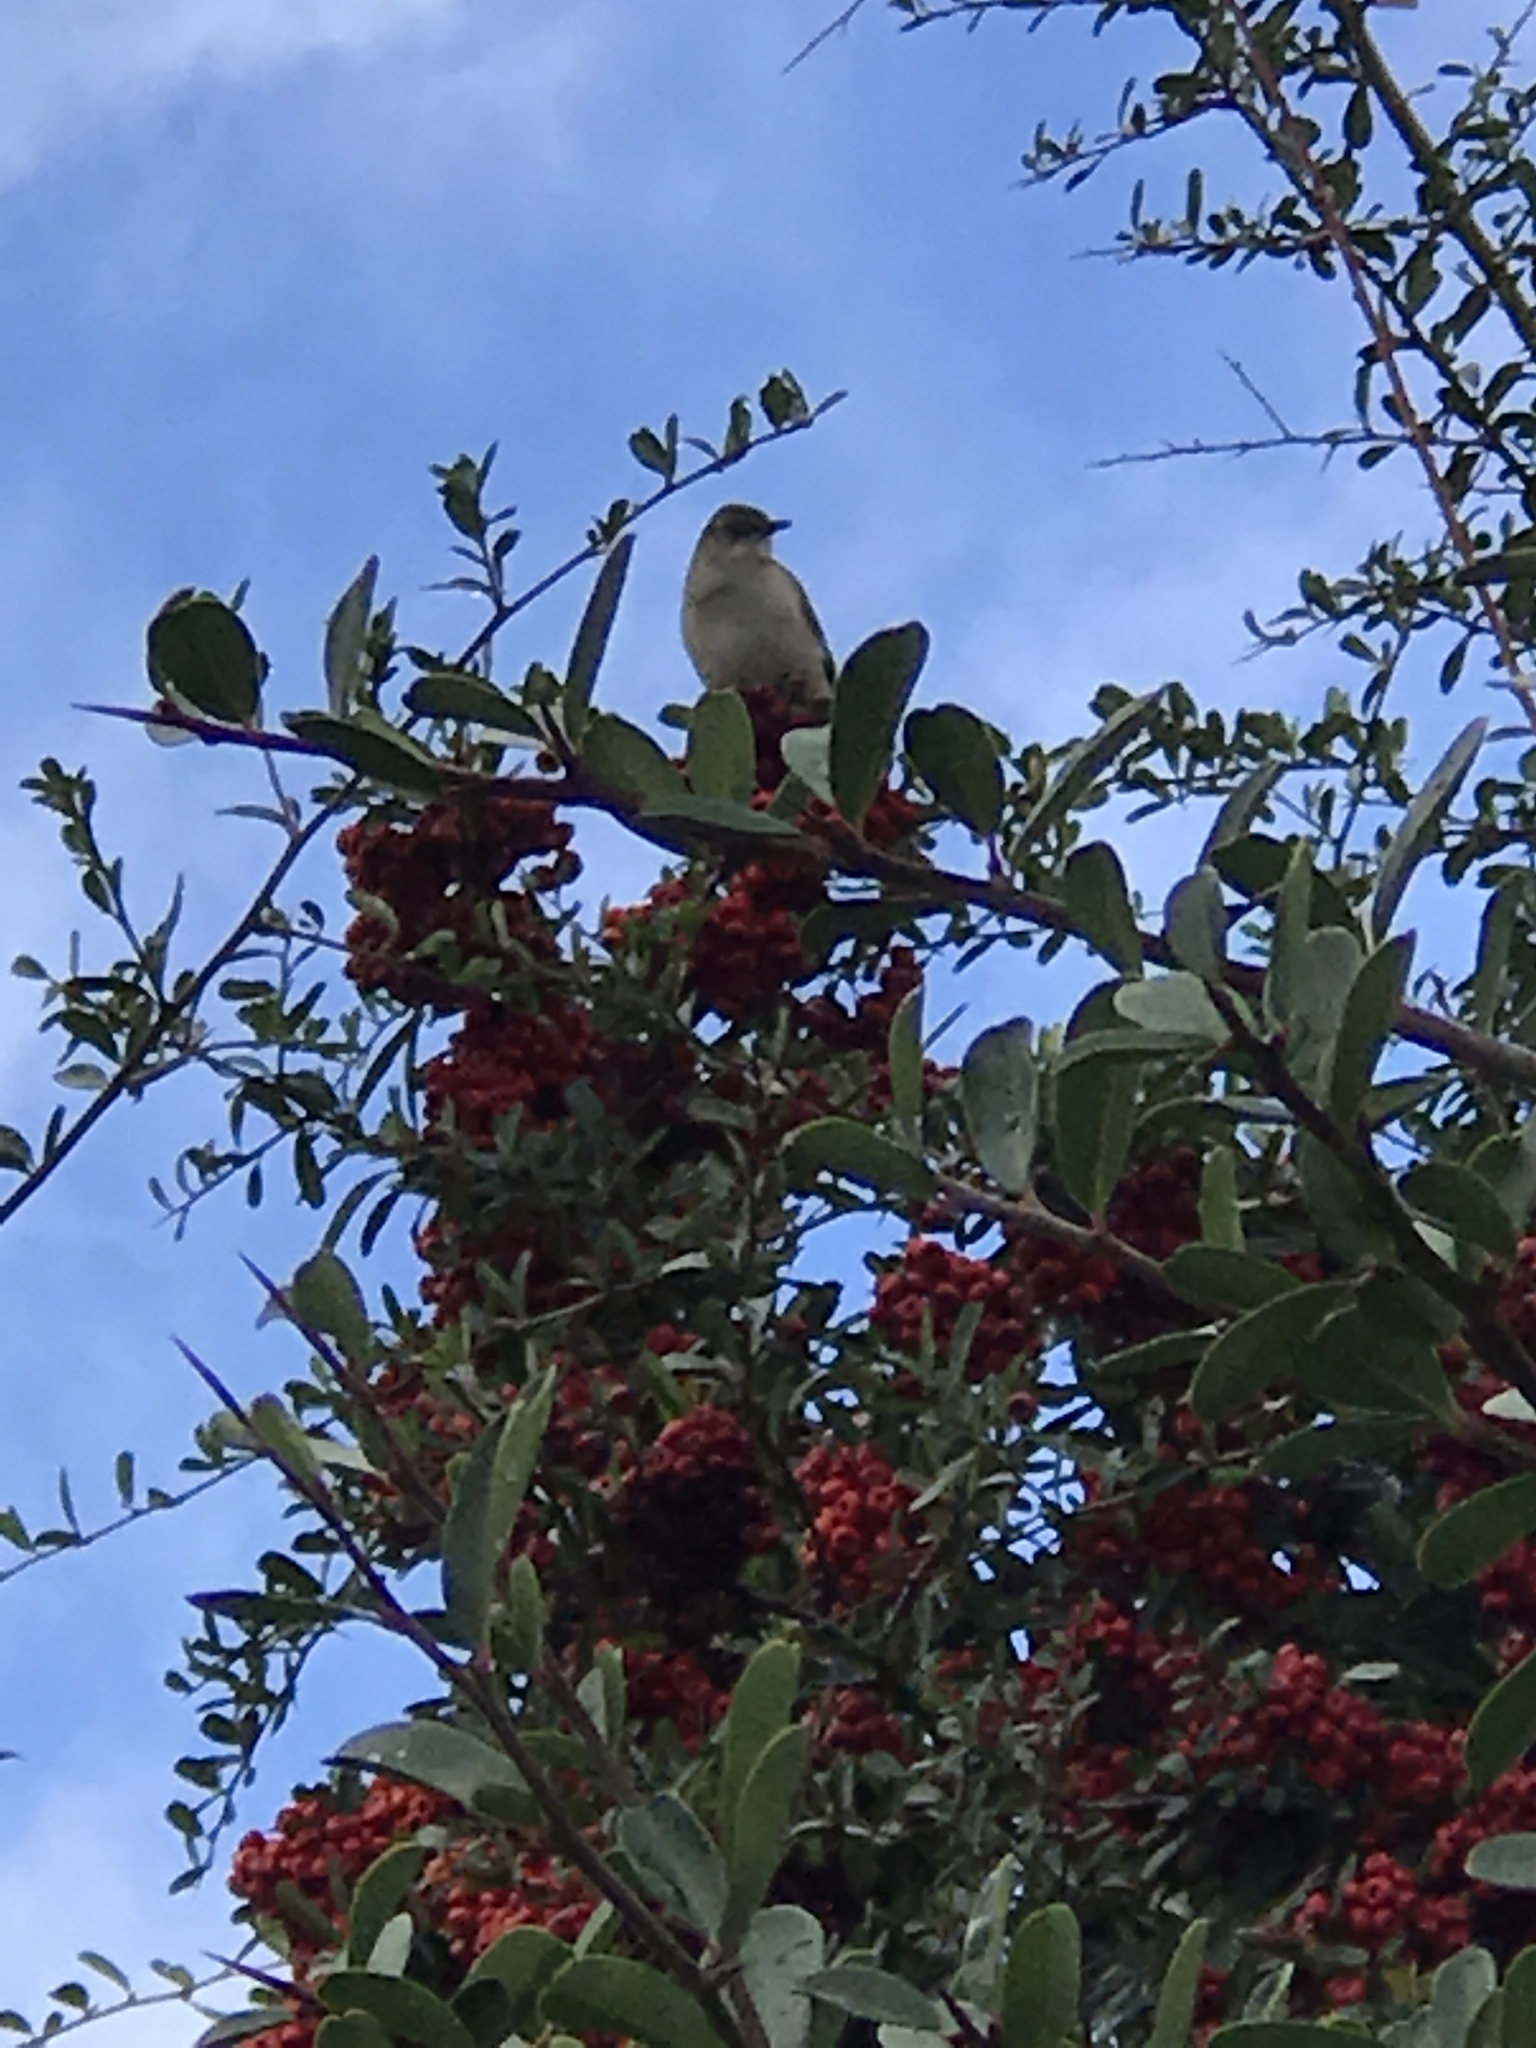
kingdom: Animalia
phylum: Chordata
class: Aves
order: Passeriformes
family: Mimidae
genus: Mimus
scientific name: Mimus polyglottos
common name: Northern mockingbird
